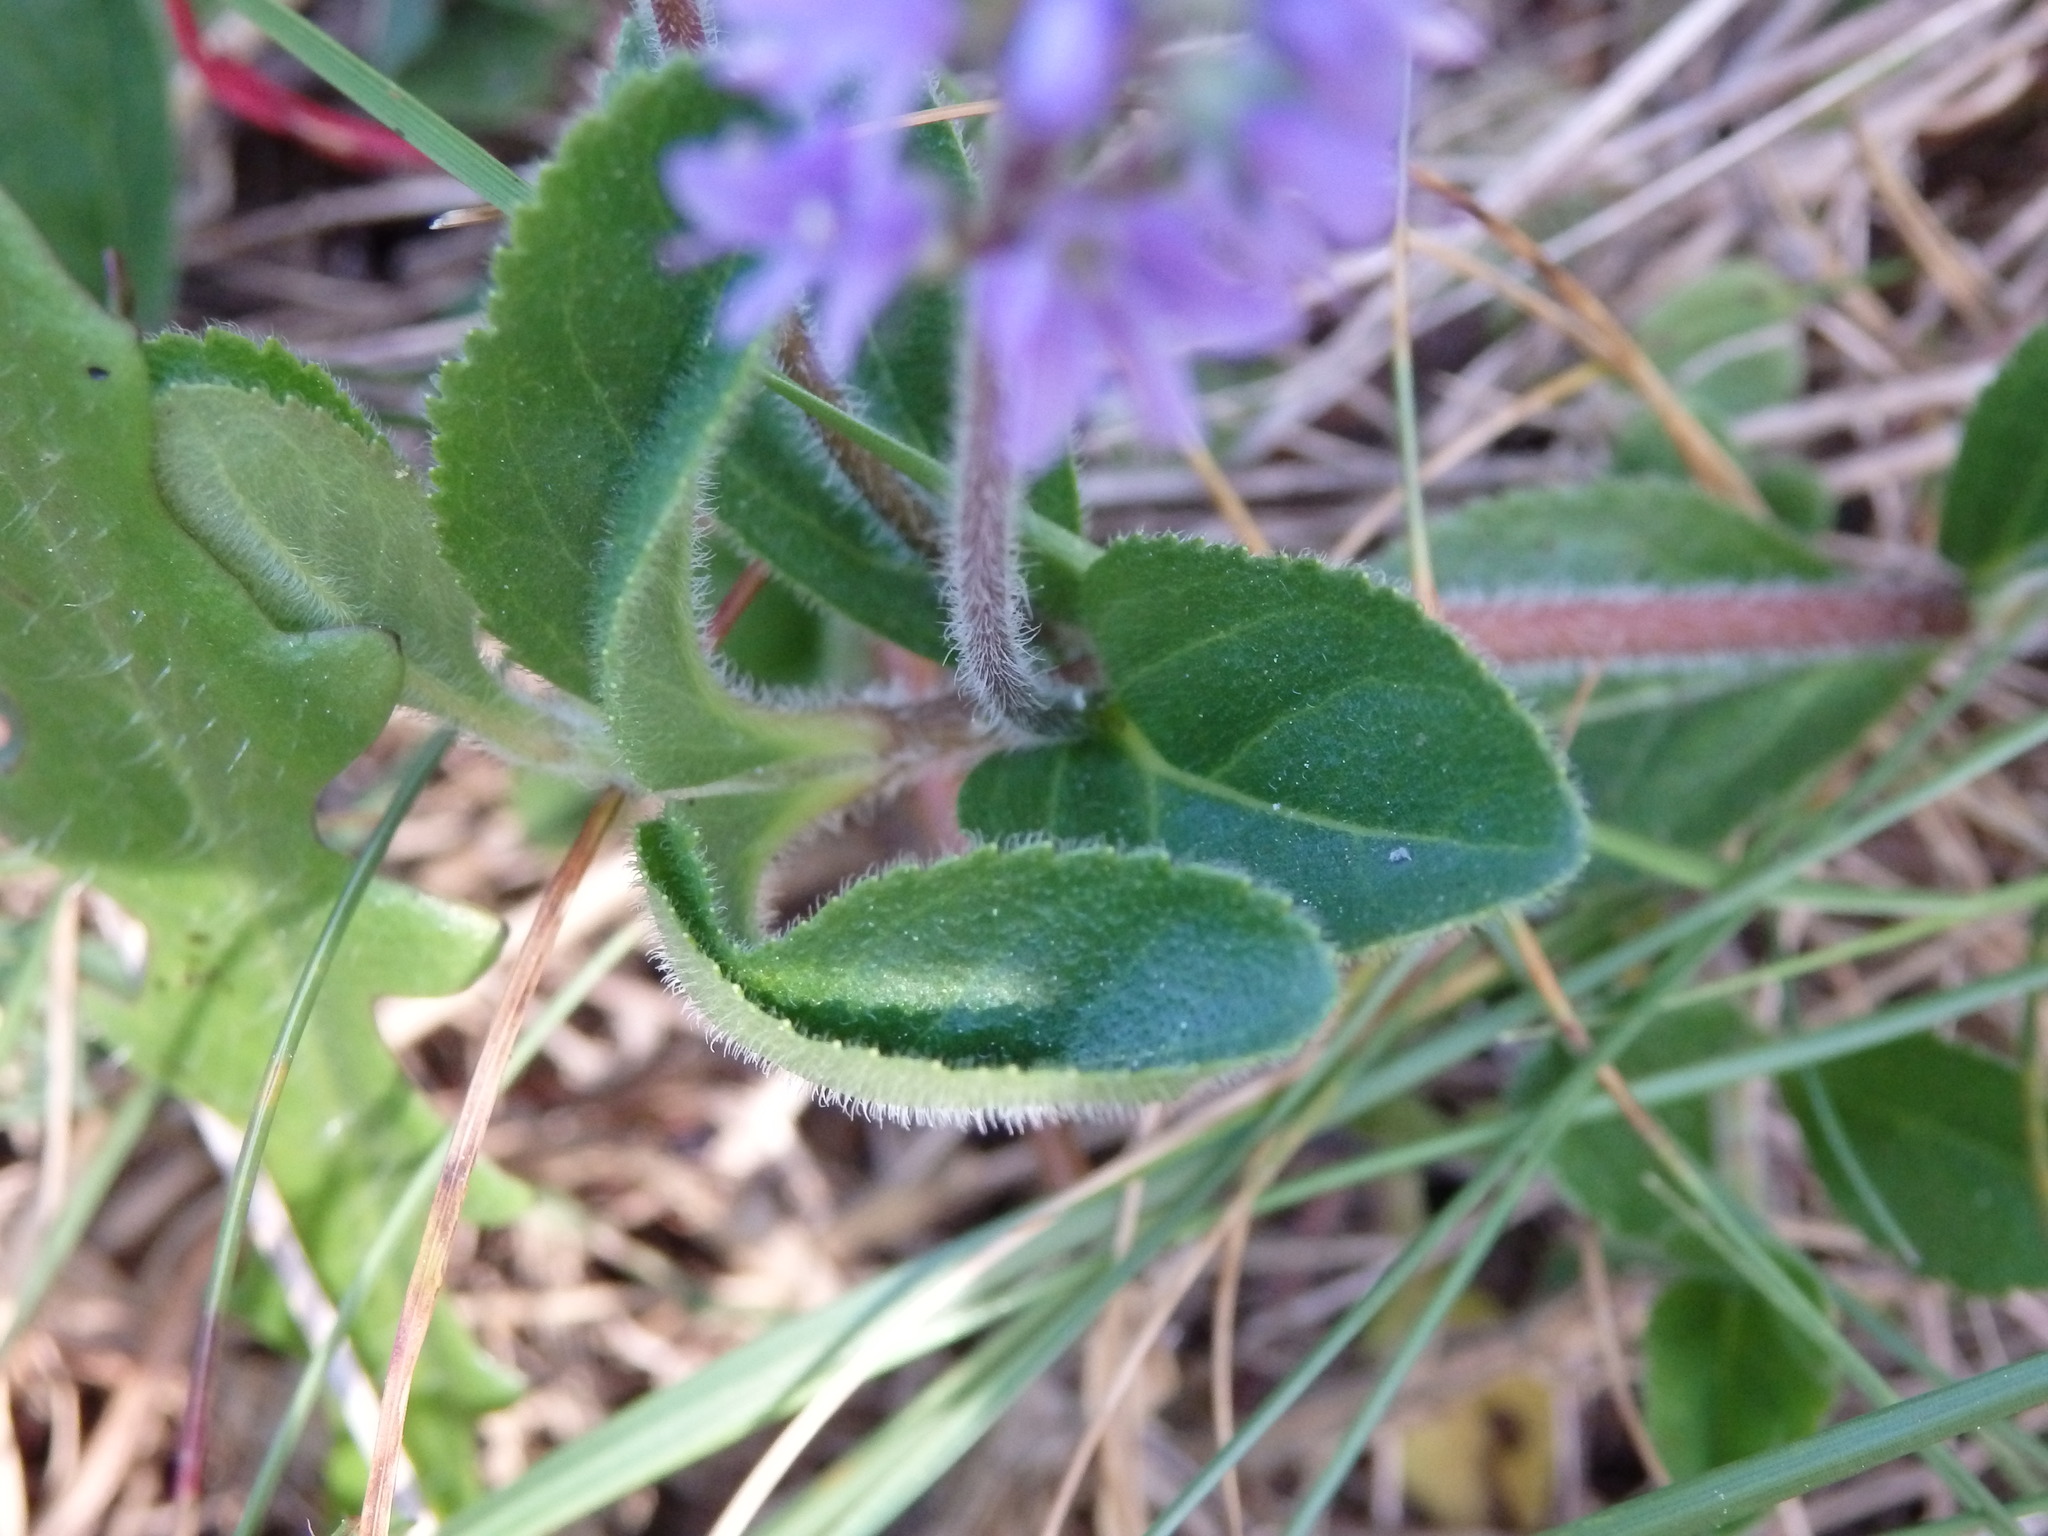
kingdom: Plantae
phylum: Tracheophyta
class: Magnoliopsida
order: Lamiales
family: Plantaginaceae
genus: Veronica
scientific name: Veronica officinalis
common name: Common speedwell
